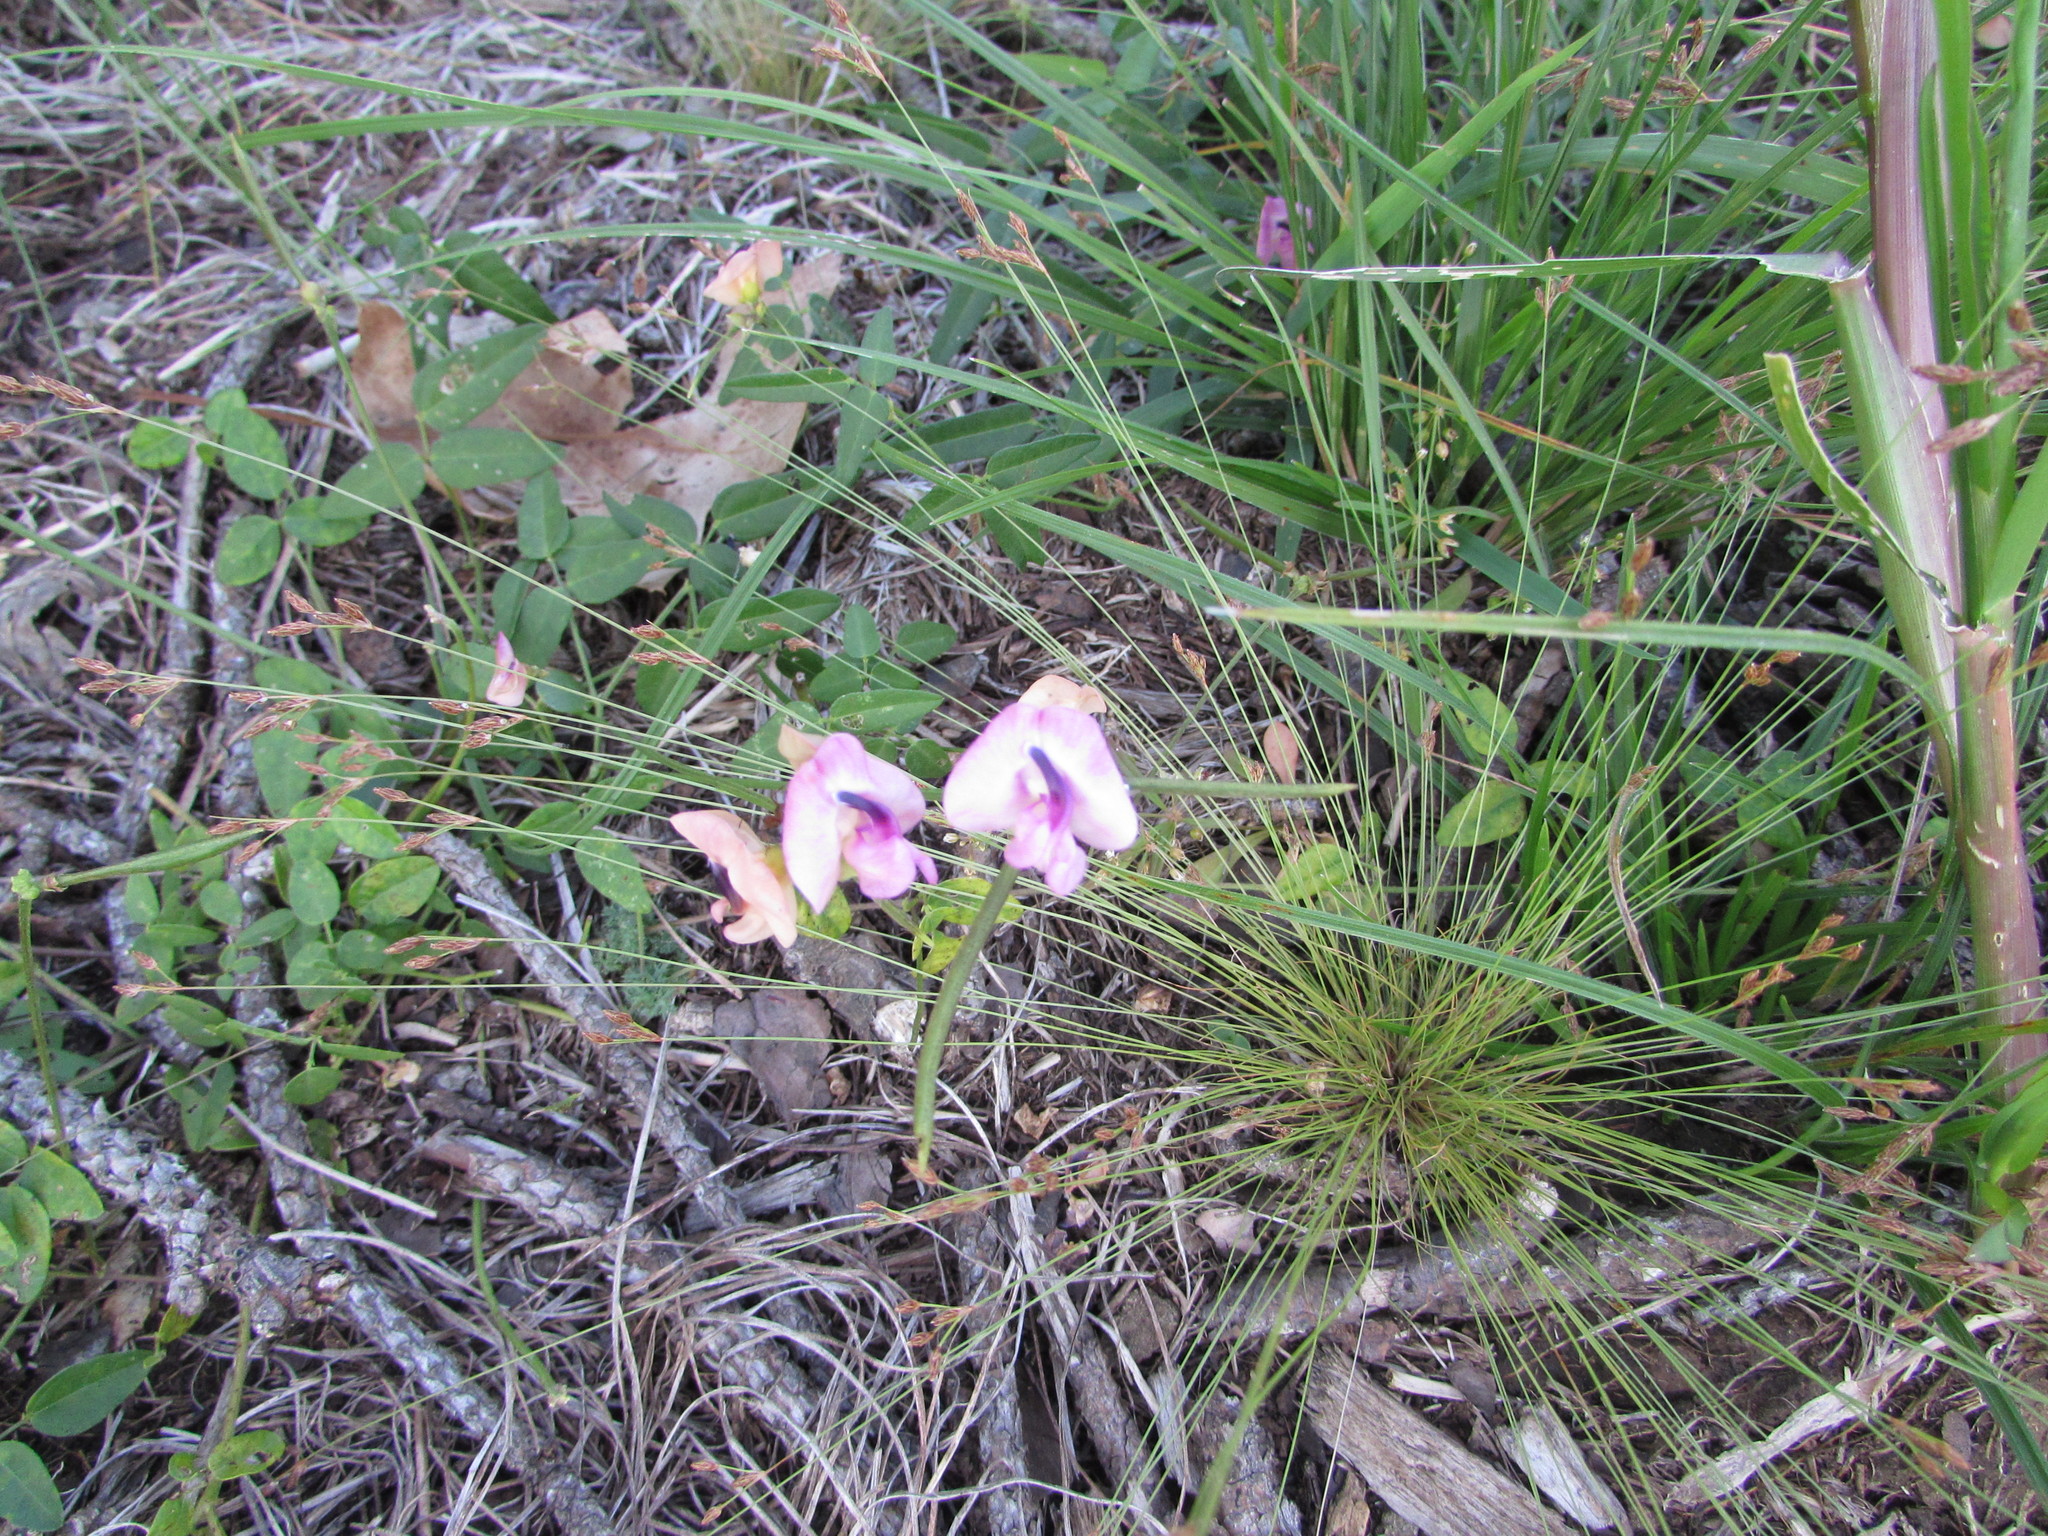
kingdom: Plantae
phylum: Tracheophyta
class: Magnoliopsida
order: Fabales
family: Fabaceae
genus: Strophostyles
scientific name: Strophostyles umbellata
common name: Perennial wild bean
